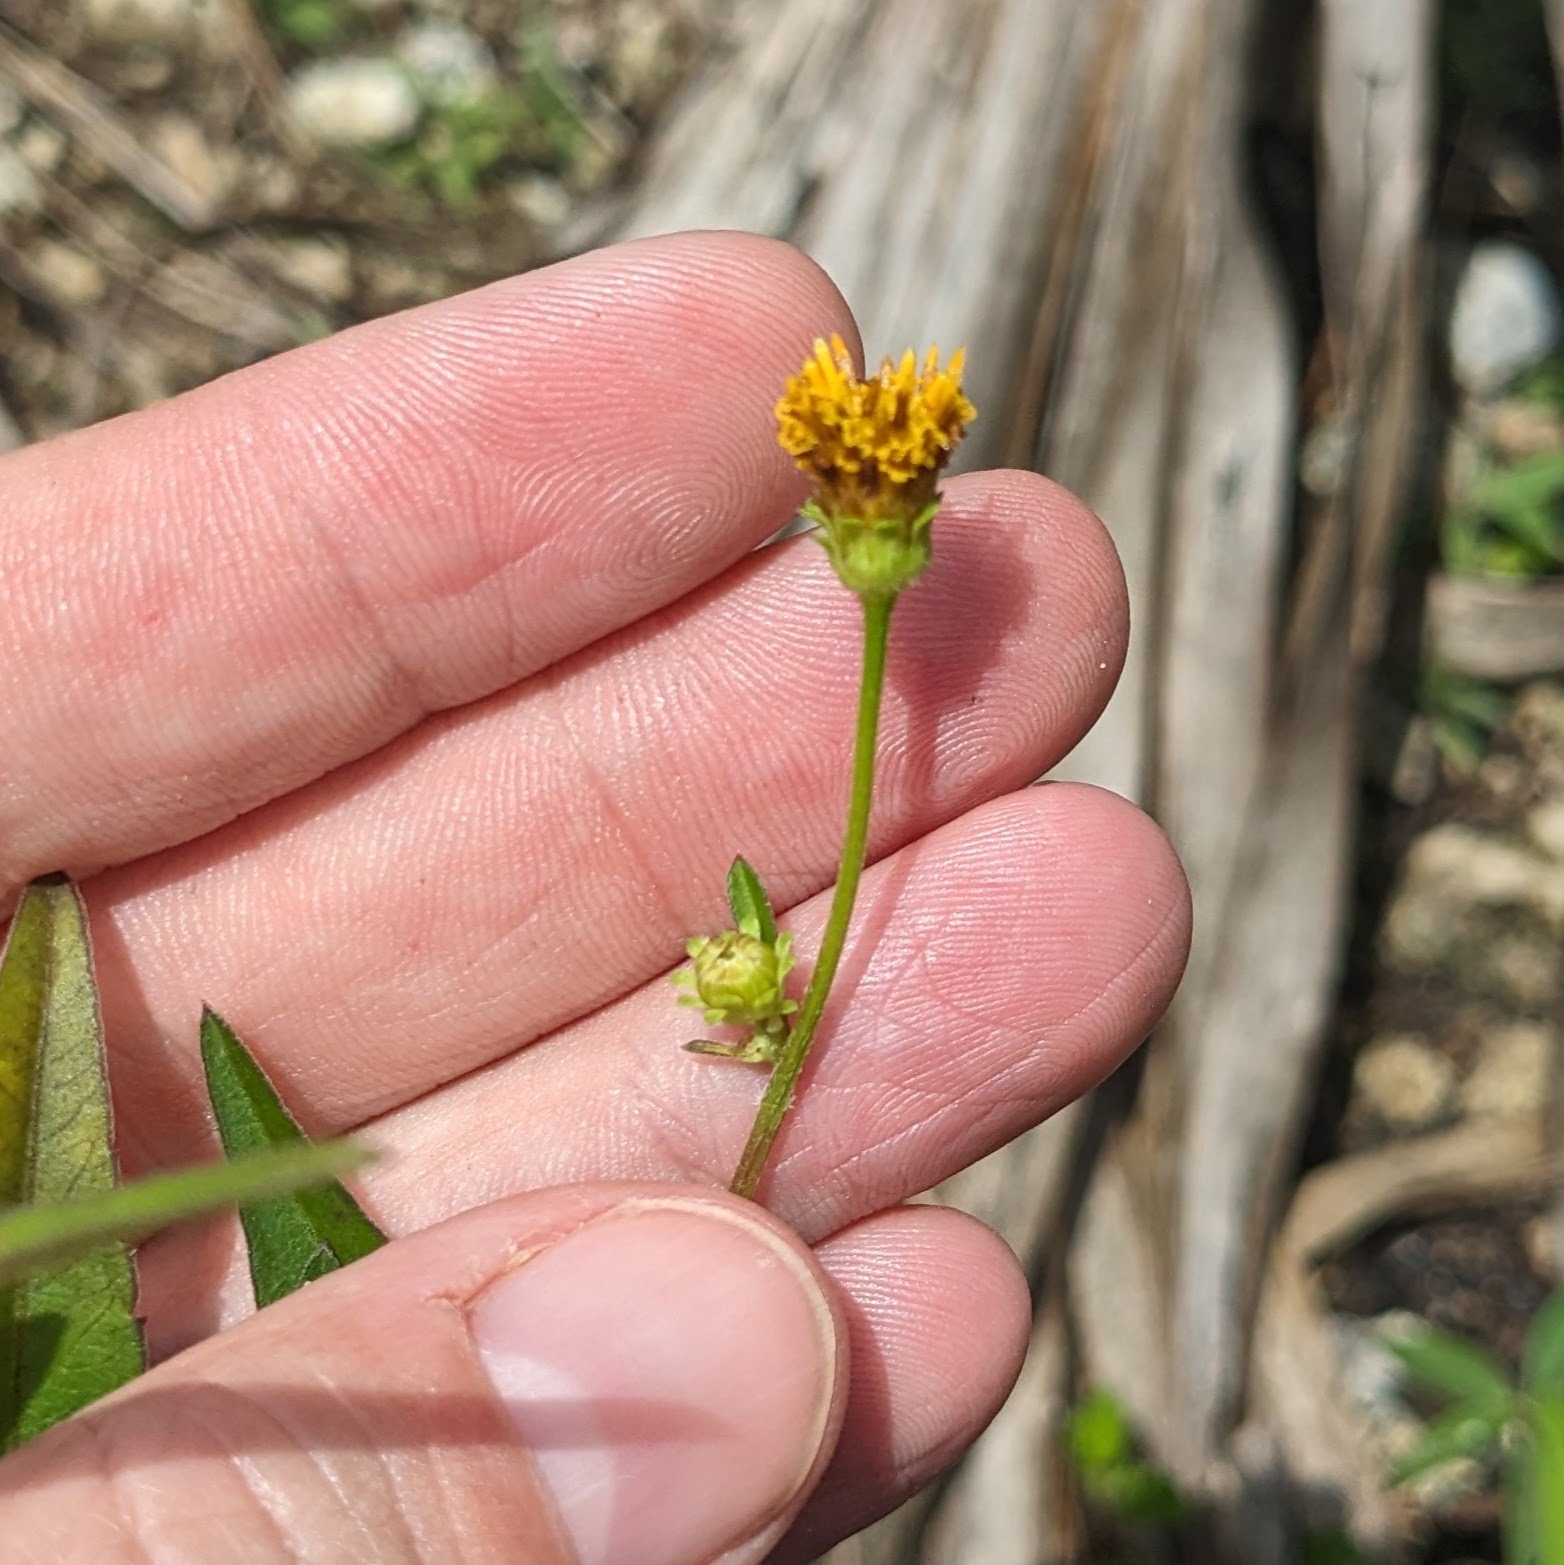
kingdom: Plantae
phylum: Tracheophyta
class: Magnoliopsida
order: Asterales
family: Asteraceae
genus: Bidens
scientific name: Bidens alba
